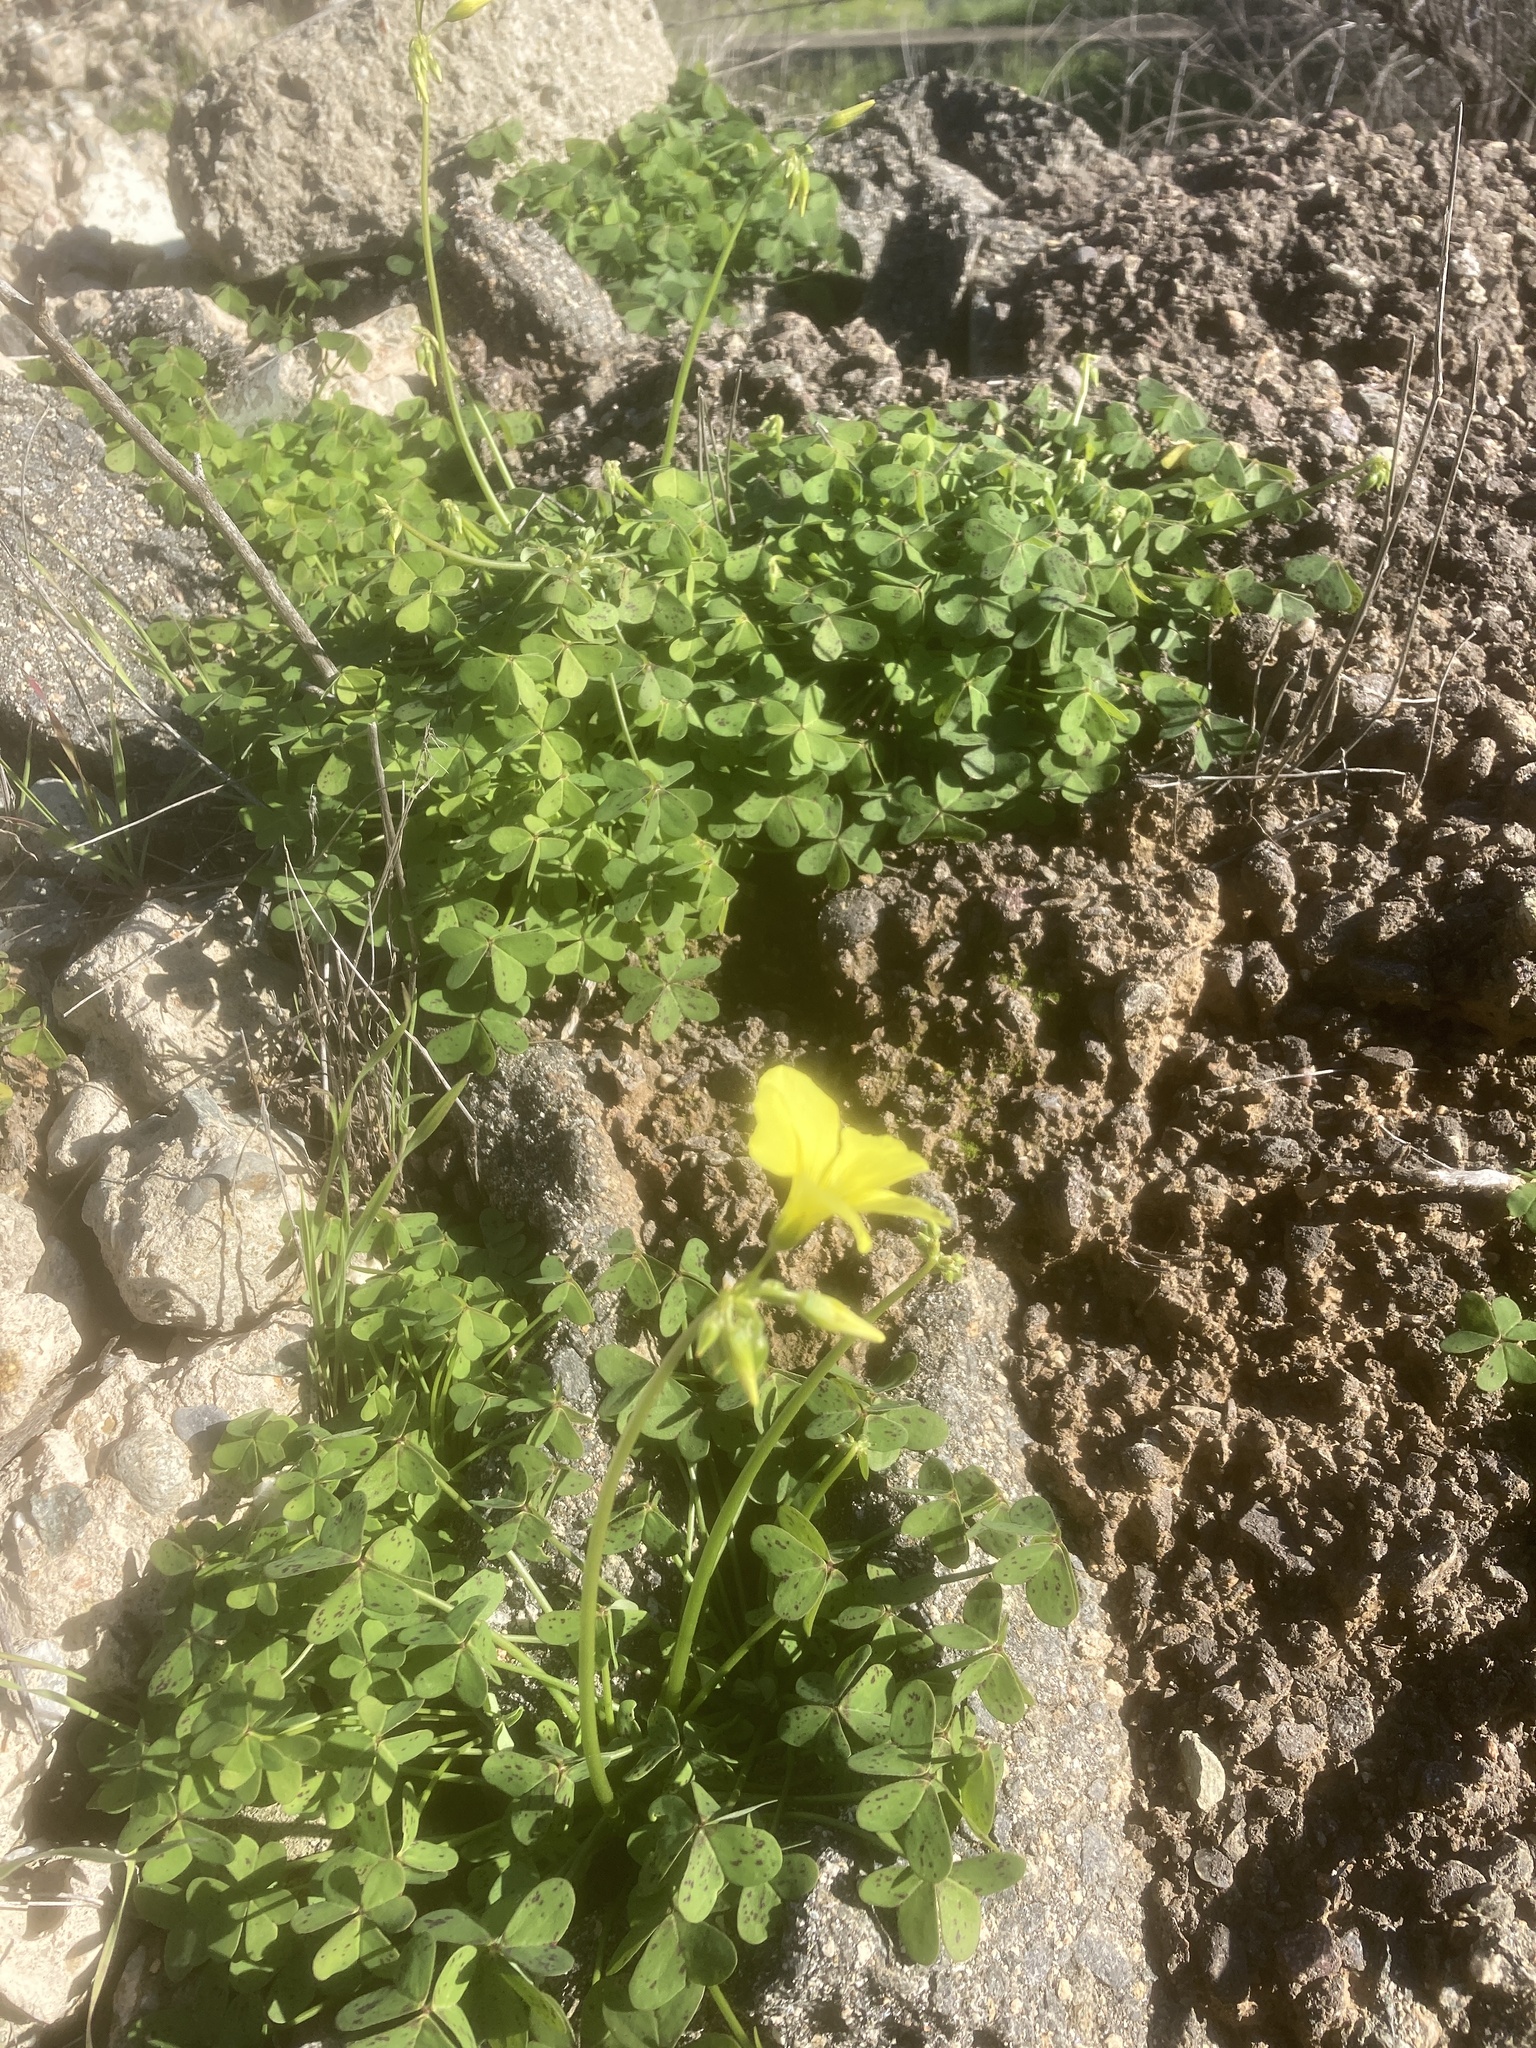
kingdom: Plantae
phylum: Tracheophyta
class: Magnoliopsida
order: Oxalidales
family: Oxalidaceae
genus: Oxalis
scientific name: Oxalis pes-caprae
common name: Bermuda-buttercup
